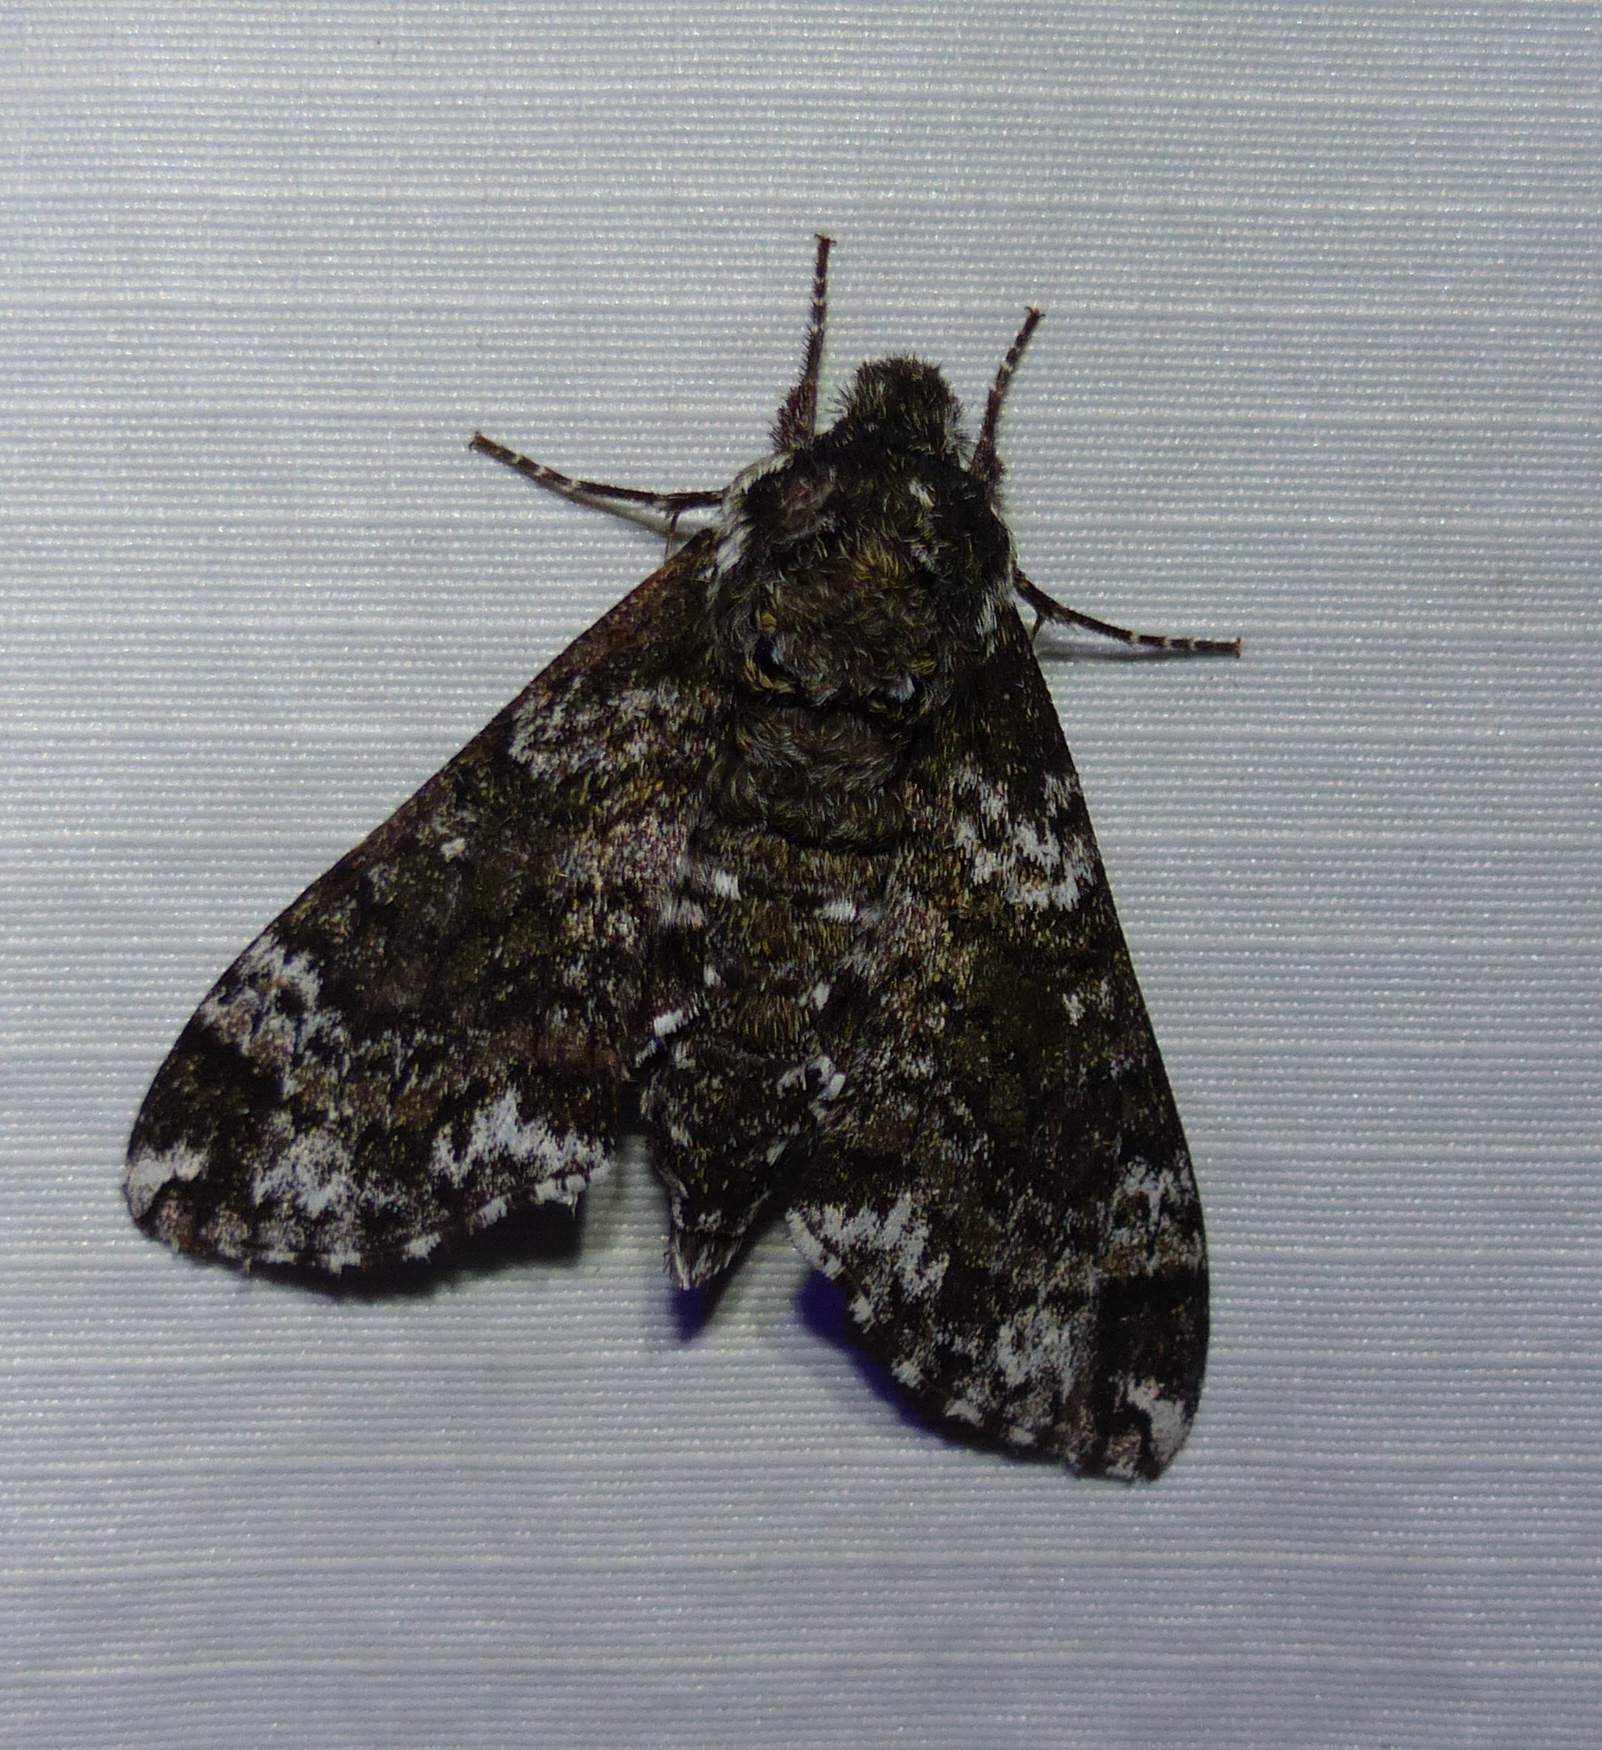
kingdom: Animalia
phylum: Arthropoda
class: Insecta
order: Lepidoptera
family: Sphingidae
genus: Dolba
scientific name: Dolba hyloeus
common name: Pawpaw sphinx
